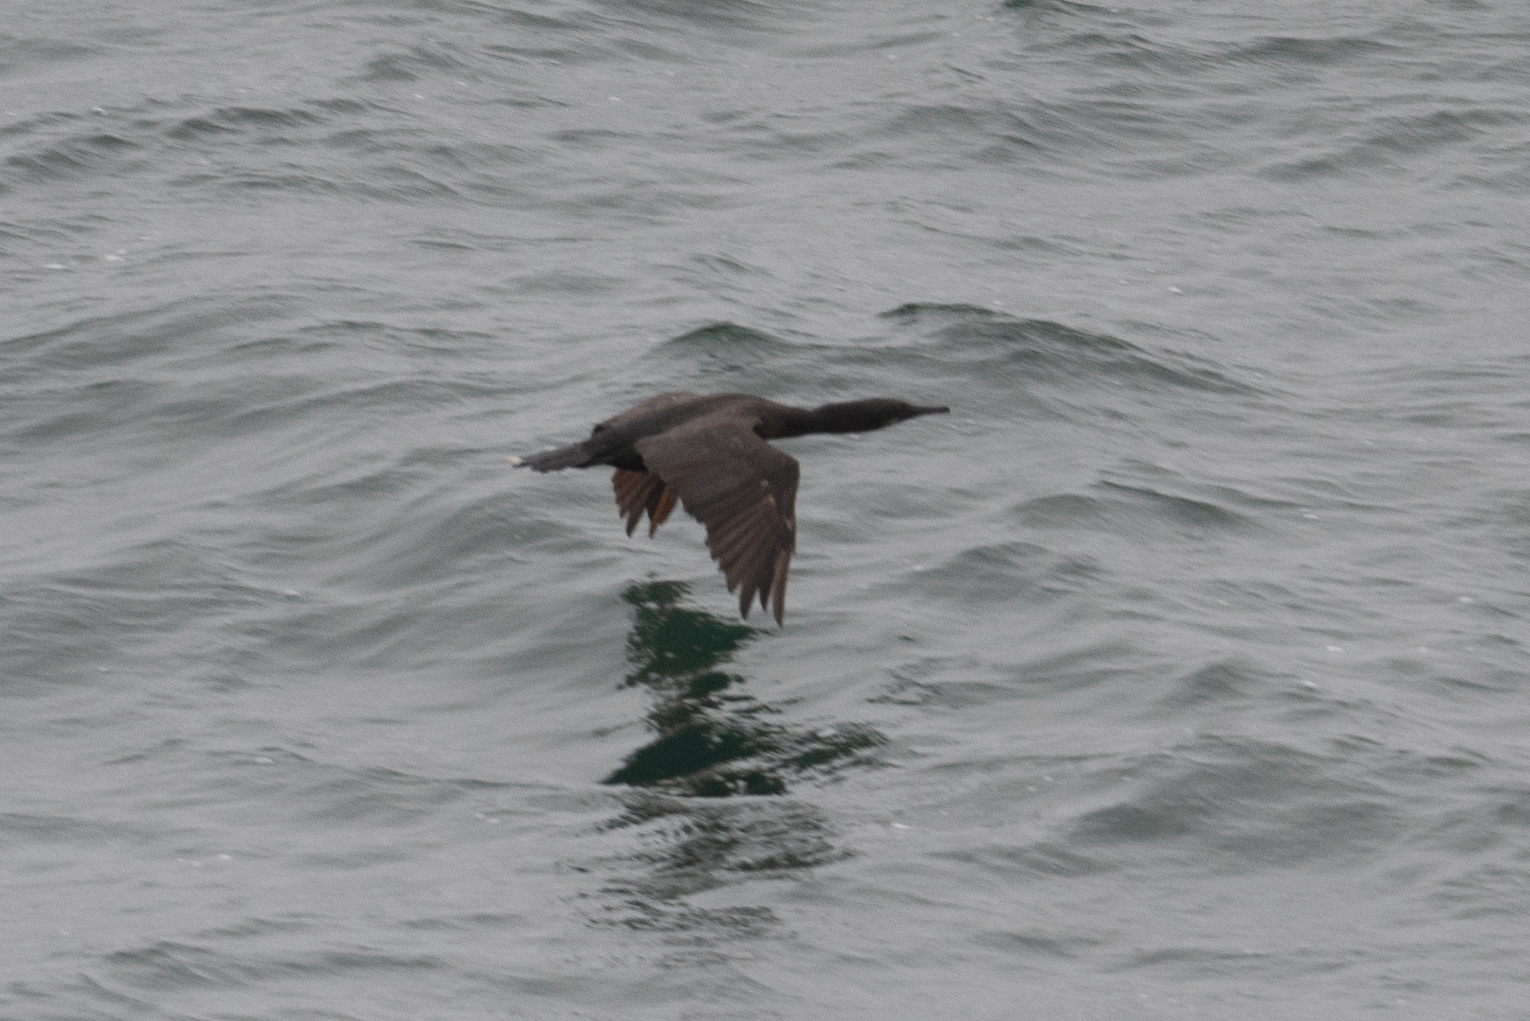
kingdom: Animalia
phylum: Chordata
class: Aves
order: Suliformes
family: Phalacrocoracidae
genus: Urile
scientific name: Urile penicillatus
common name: Brandt's cormorant
